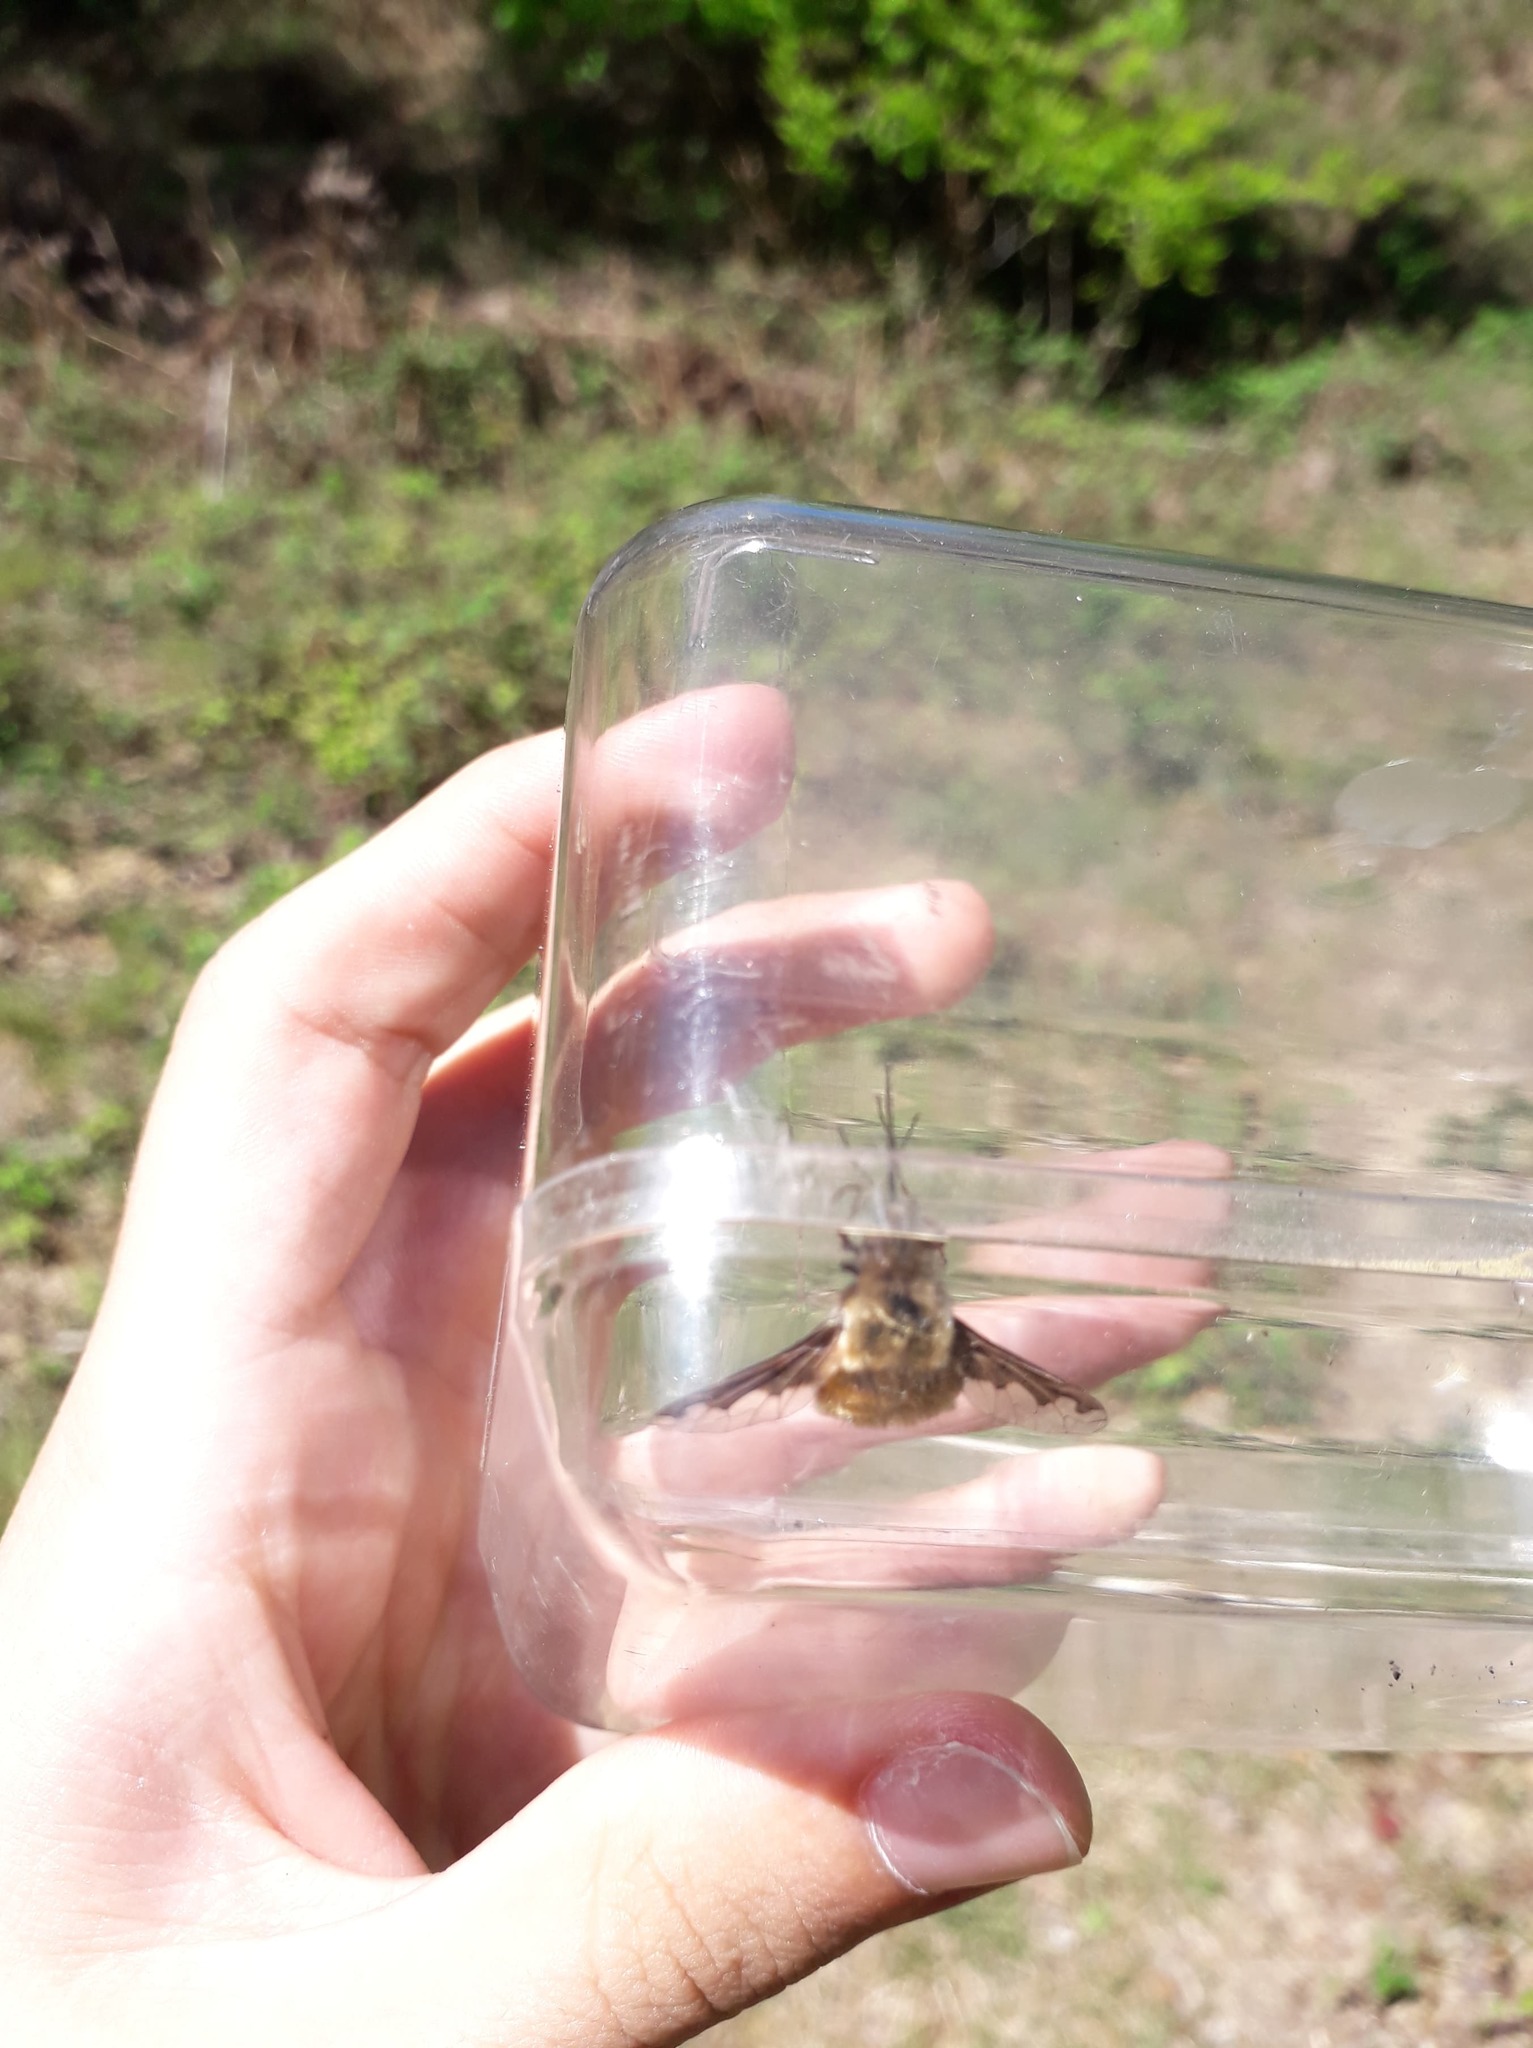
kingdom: Animalia
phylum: Arthropoda
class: Insecta
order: Diptera
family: Bombyliidae
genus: Bombylius
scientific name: Bombylius major
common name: Bee fly
